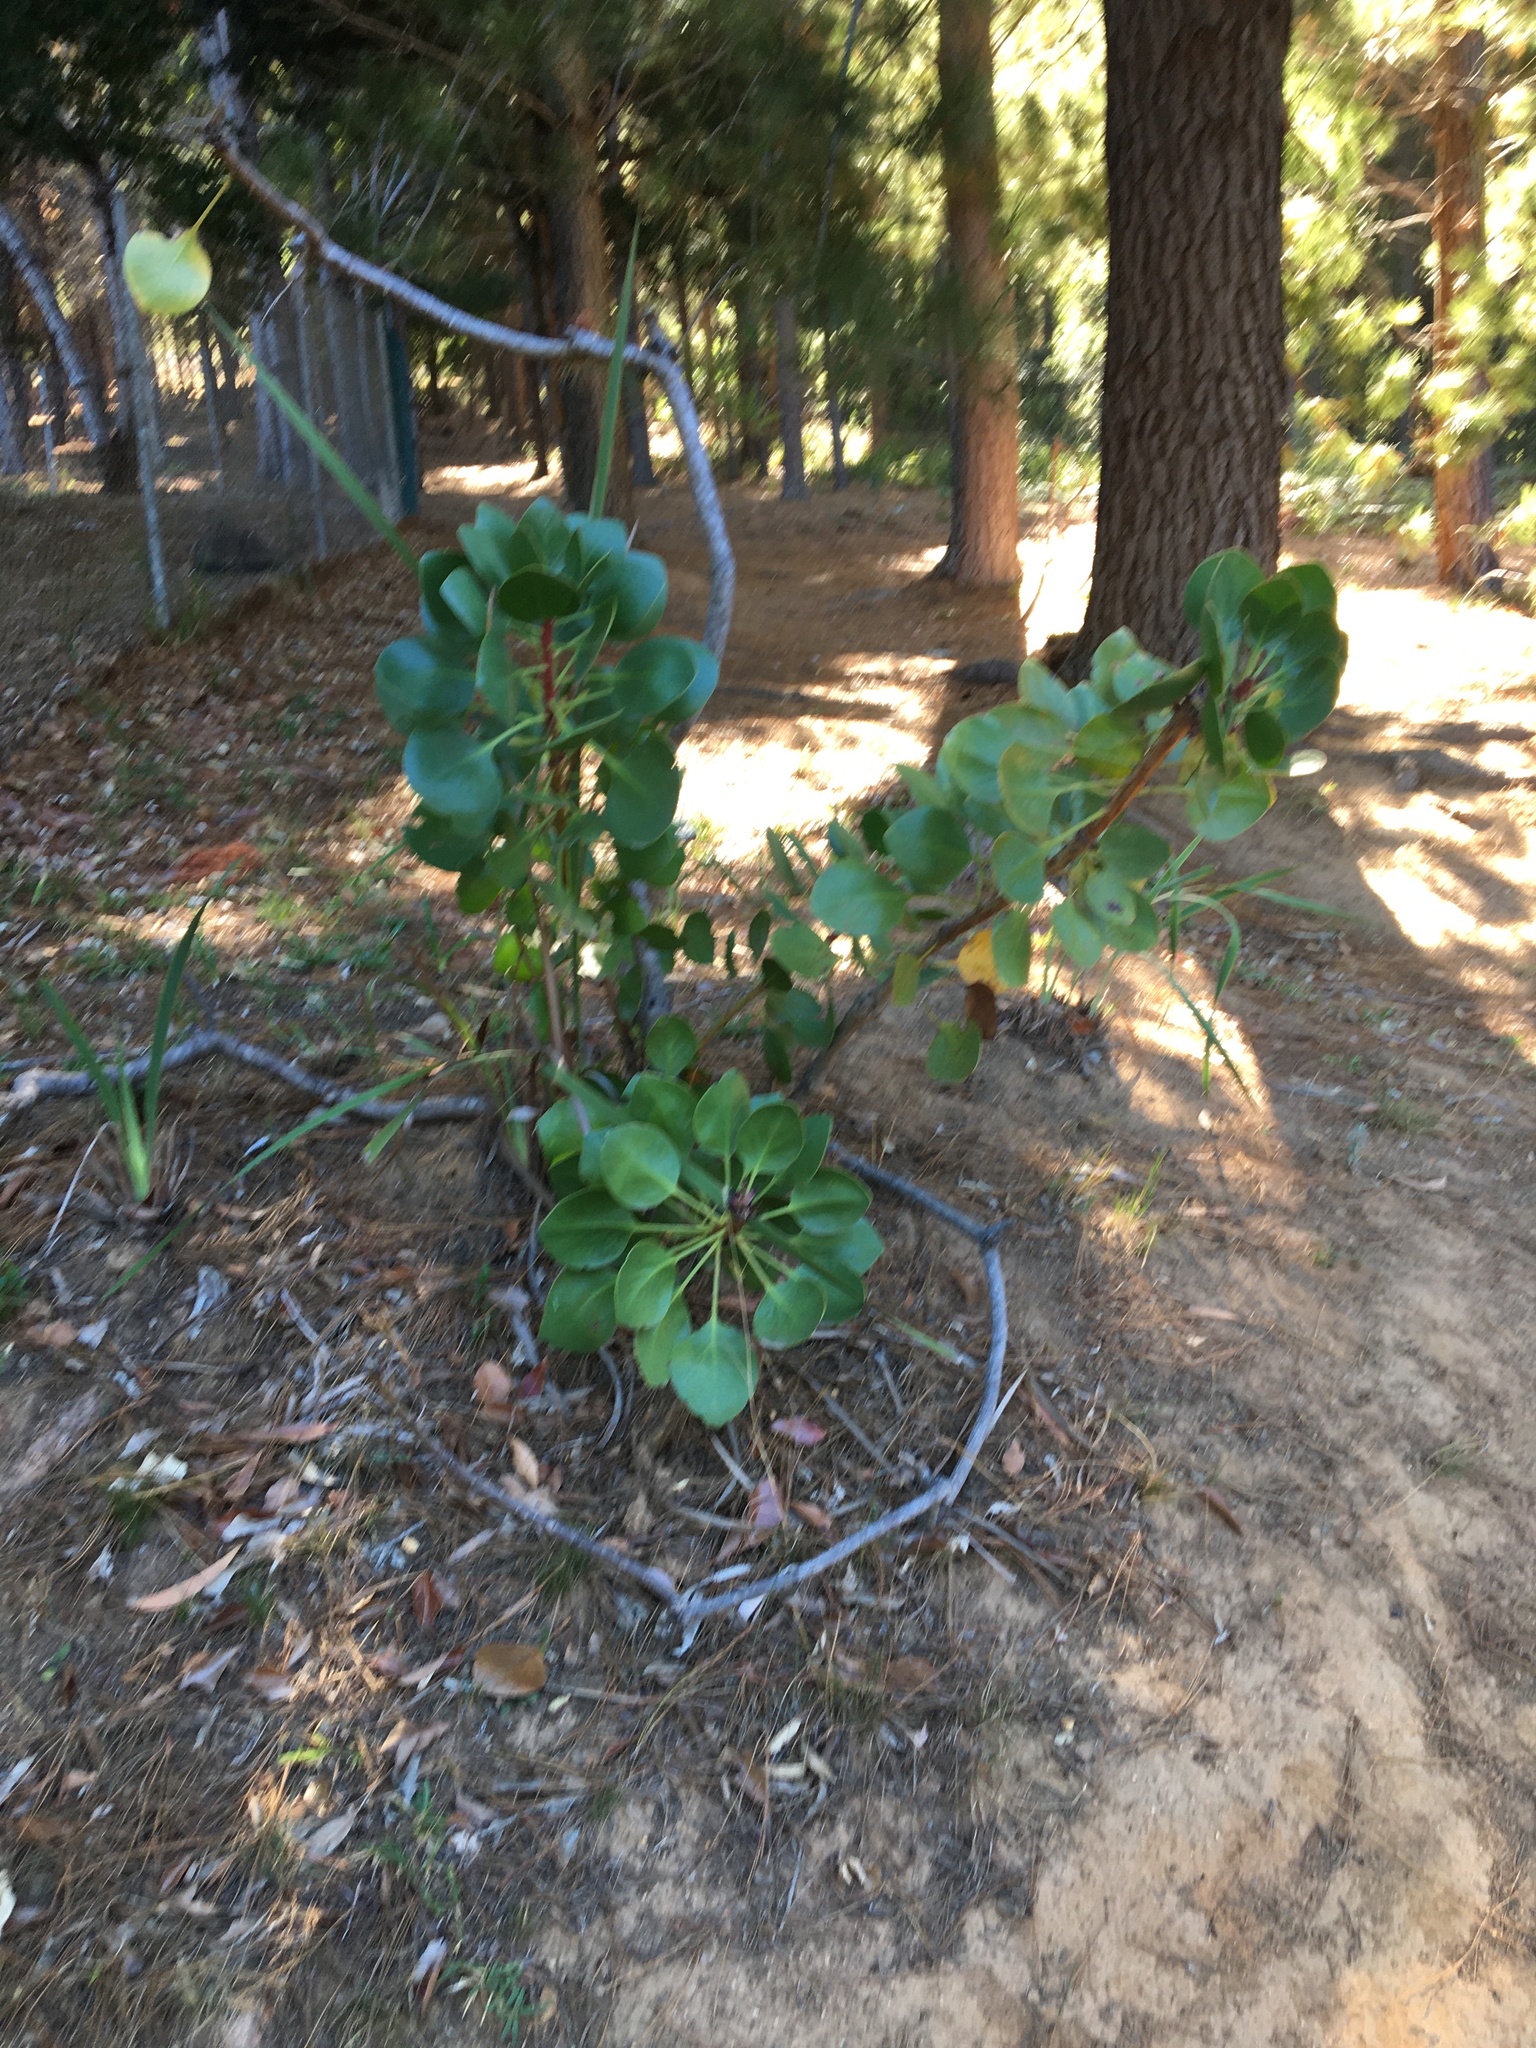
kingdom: Plantae
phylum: Tracheophyta
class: Magnoliopsida
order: Proteales
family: Proteaceae
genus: Protea
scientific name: Protea cynaroides
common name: King protea
